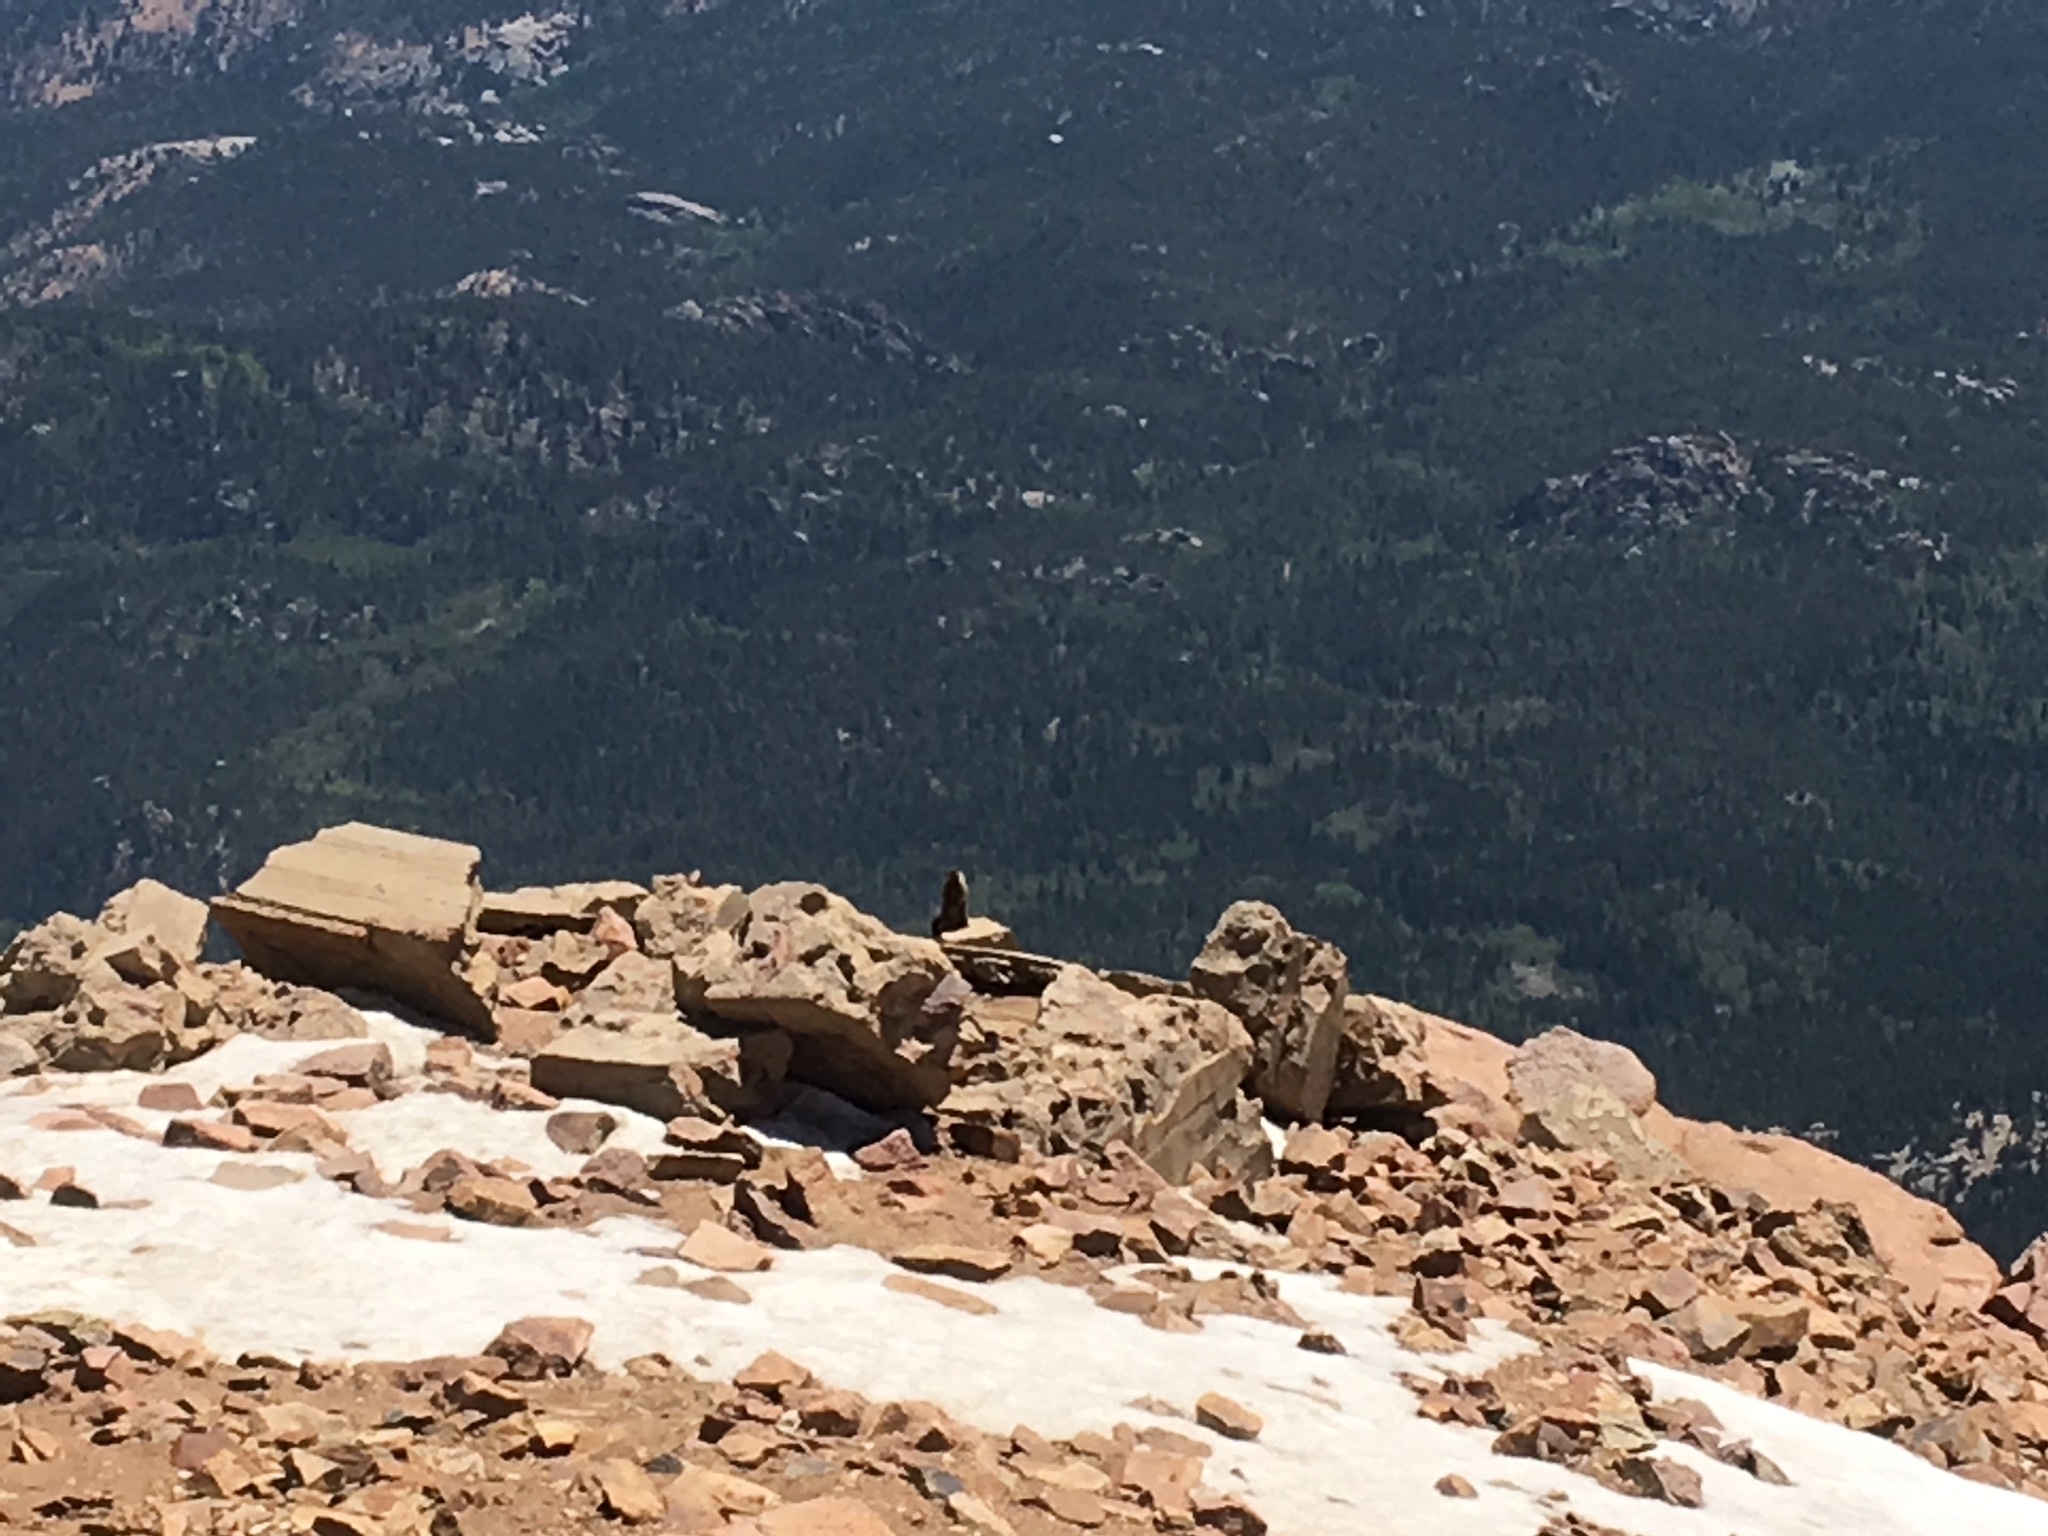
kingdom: Animalia
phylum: Chordata
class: Mammalia
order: Rodentia
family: Sciuridae
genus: Marmota
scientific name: Marmota flaviventris
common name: Yellow-bellied marmot
